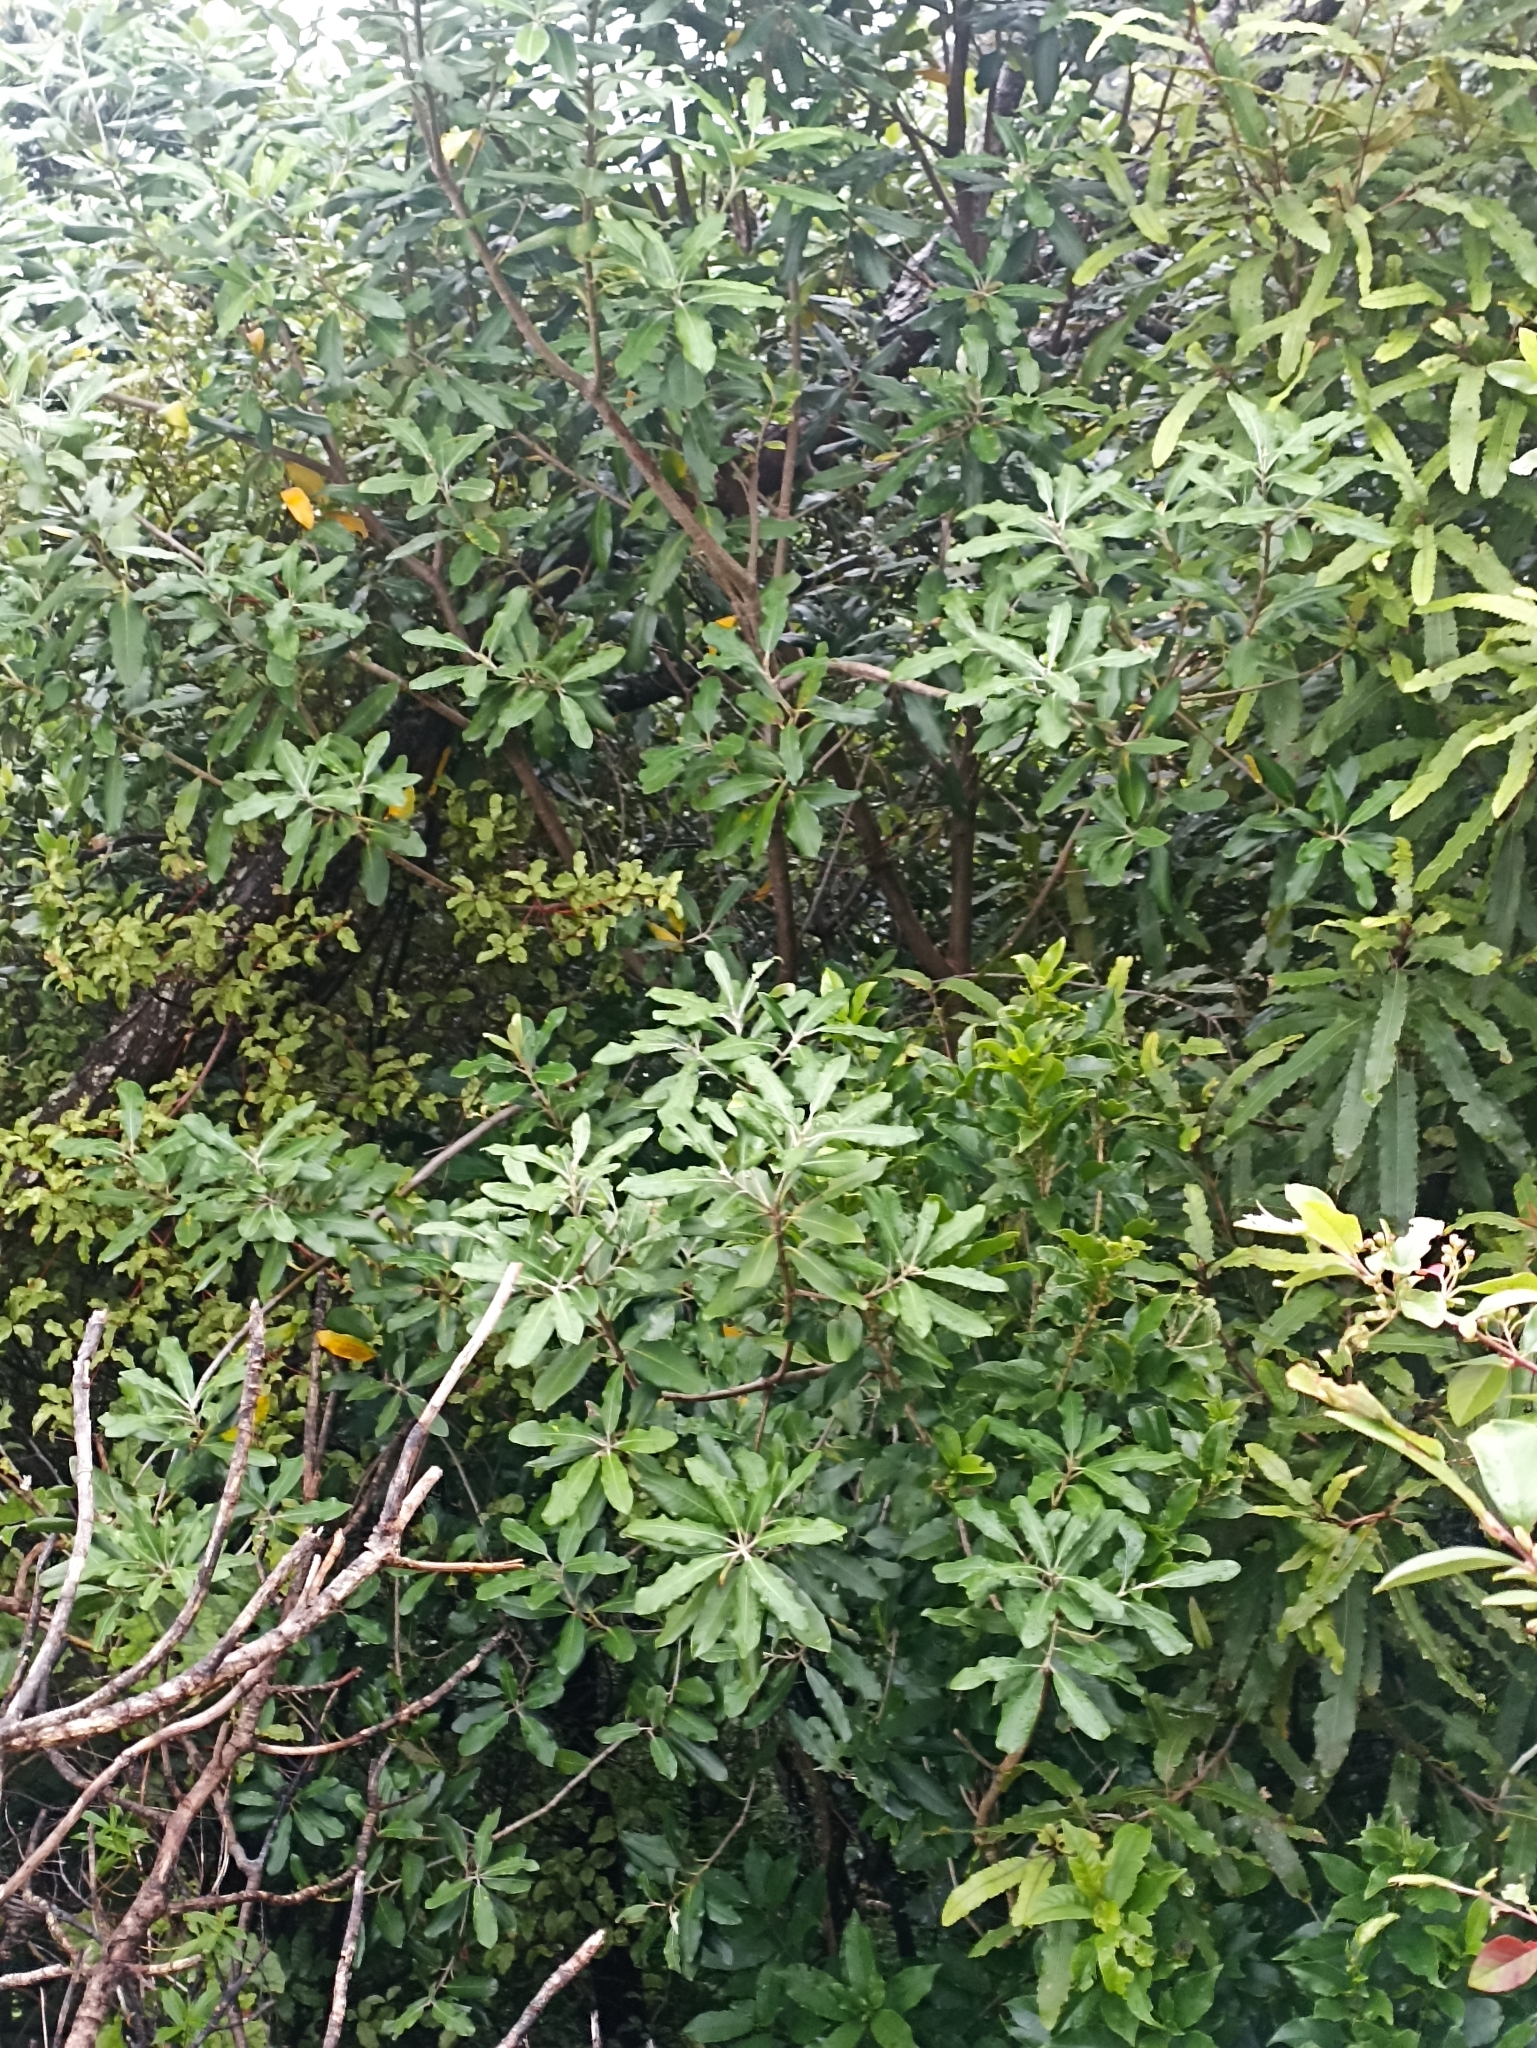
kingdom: Plantae
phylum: Tracheophyta
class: Magnoliopsida
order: Apiales
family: Pittosporaceae
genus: Pittosporum
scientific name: Pittosporum ralphii
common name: Ralph's desertwillow
